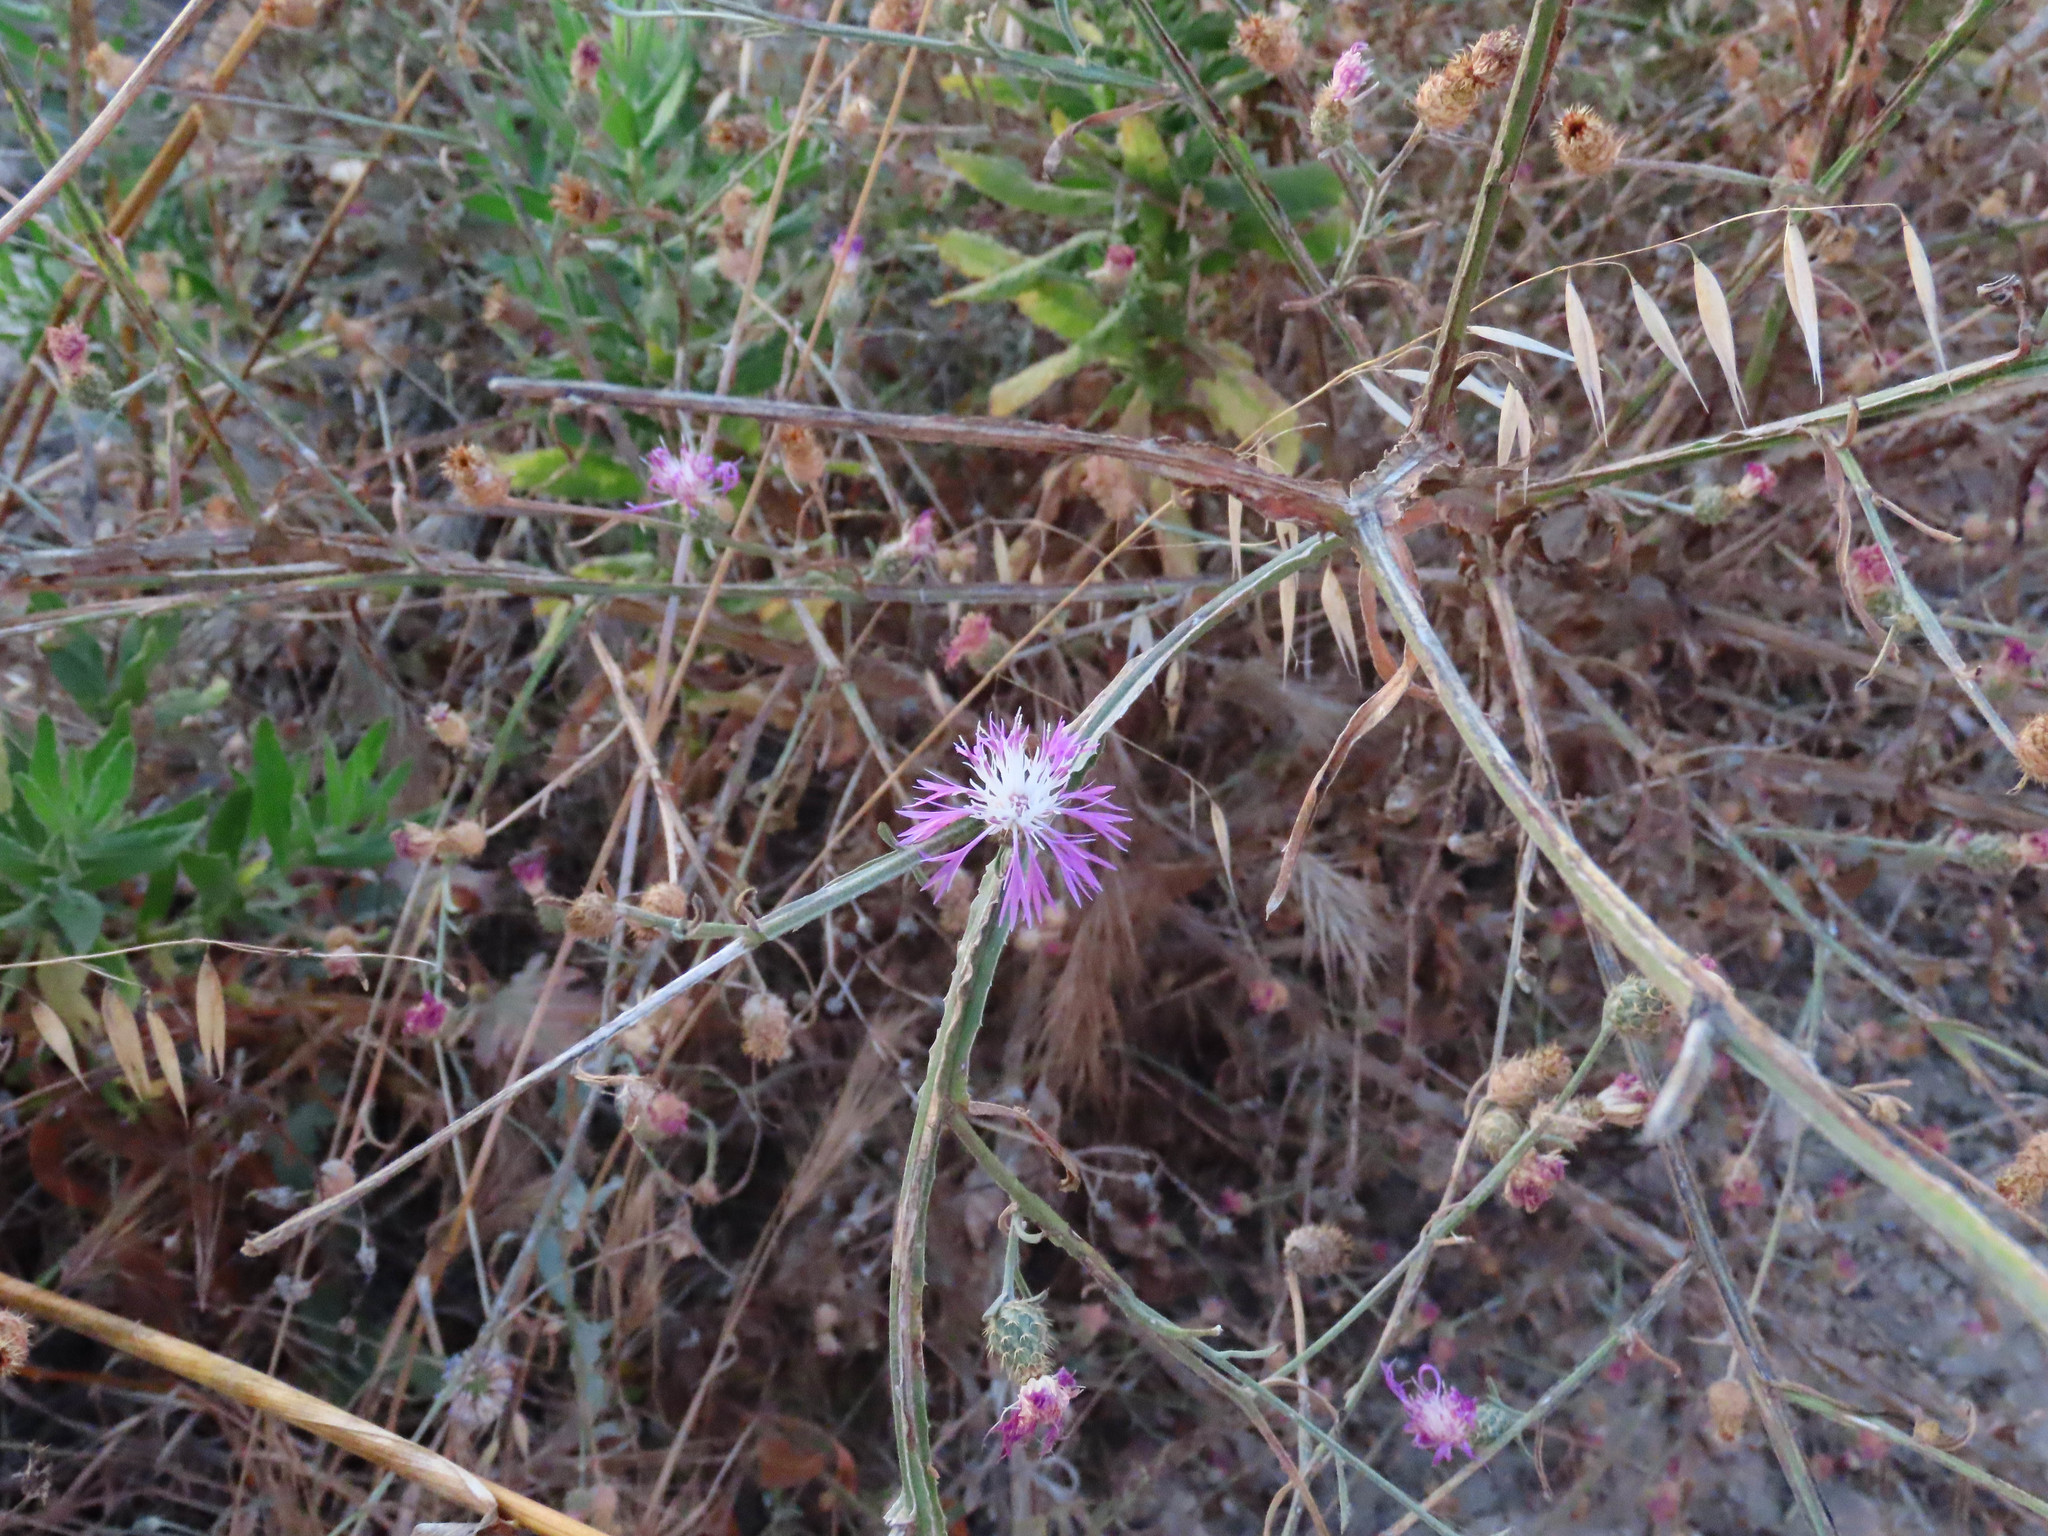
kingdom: Plantae
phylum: Tracheophyta
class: Magnoliopsida
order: Asterales
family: Asteraceae
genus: Centaurea
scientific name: Centaurea napifolia
